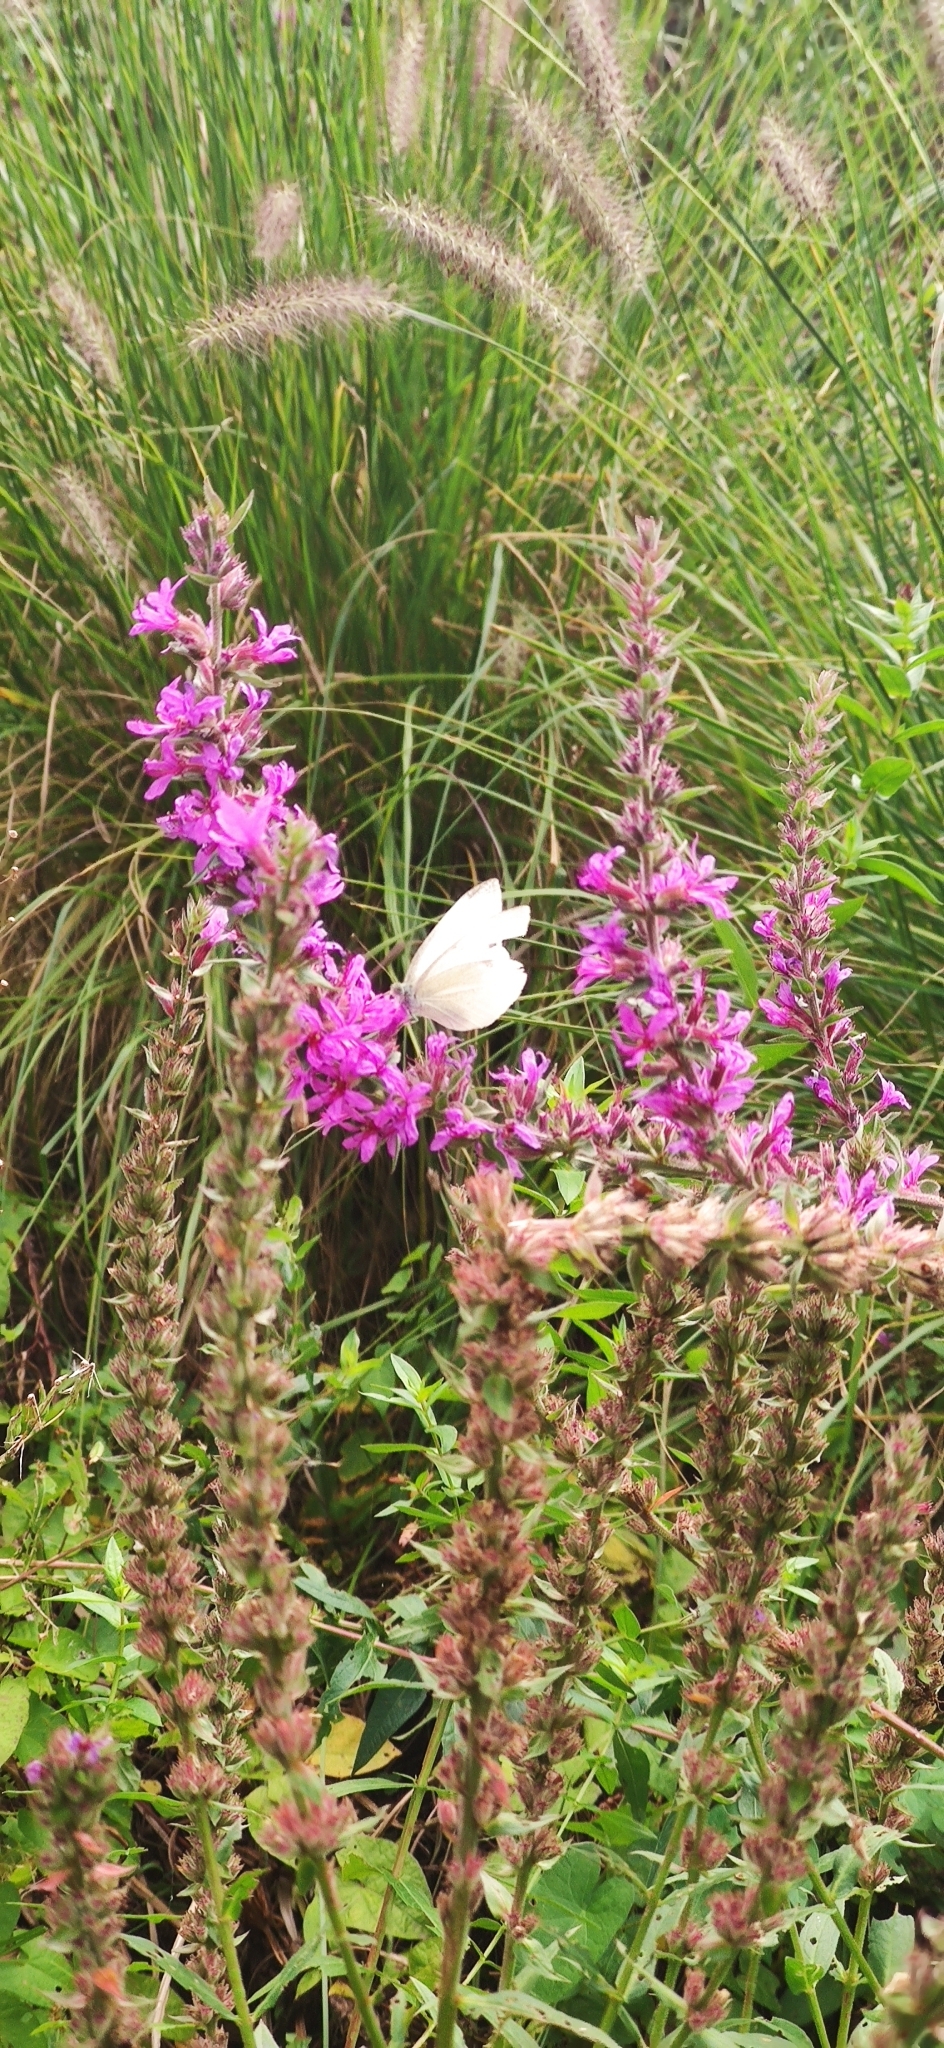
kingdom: Animalia
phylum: Arthropoda
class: Insecta
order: Lepidoptera
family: Pieridae
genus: Pieris
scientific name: Pieris rapae
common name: Small white
